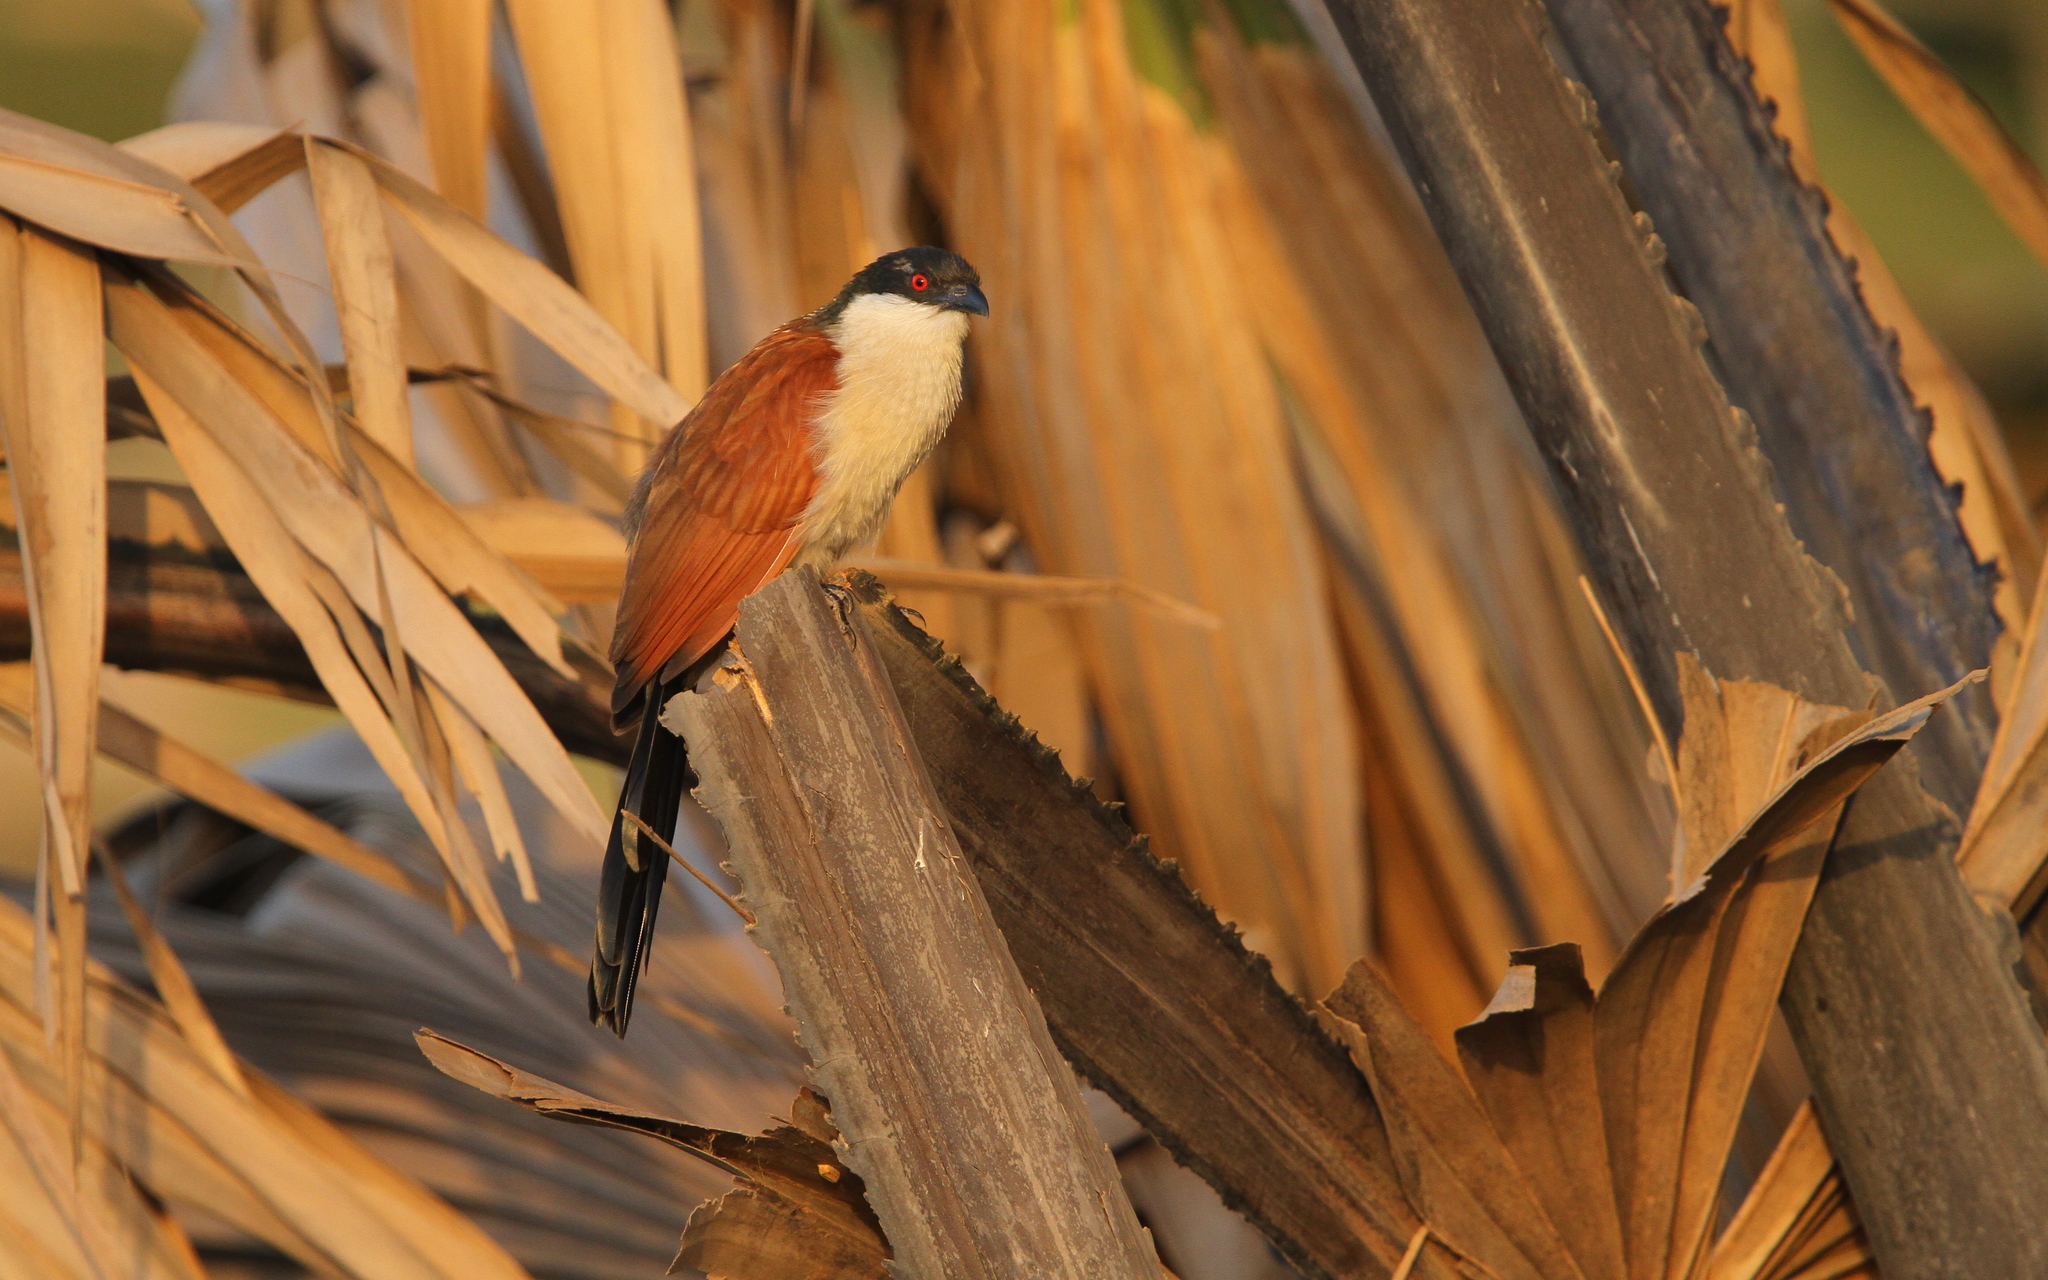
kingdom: Animalia
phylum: Chordata
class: Aves
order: Cuculiformes
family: Cuculidae
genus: Centropus
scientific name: Centropus senegalensis
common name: Senegal coucal
